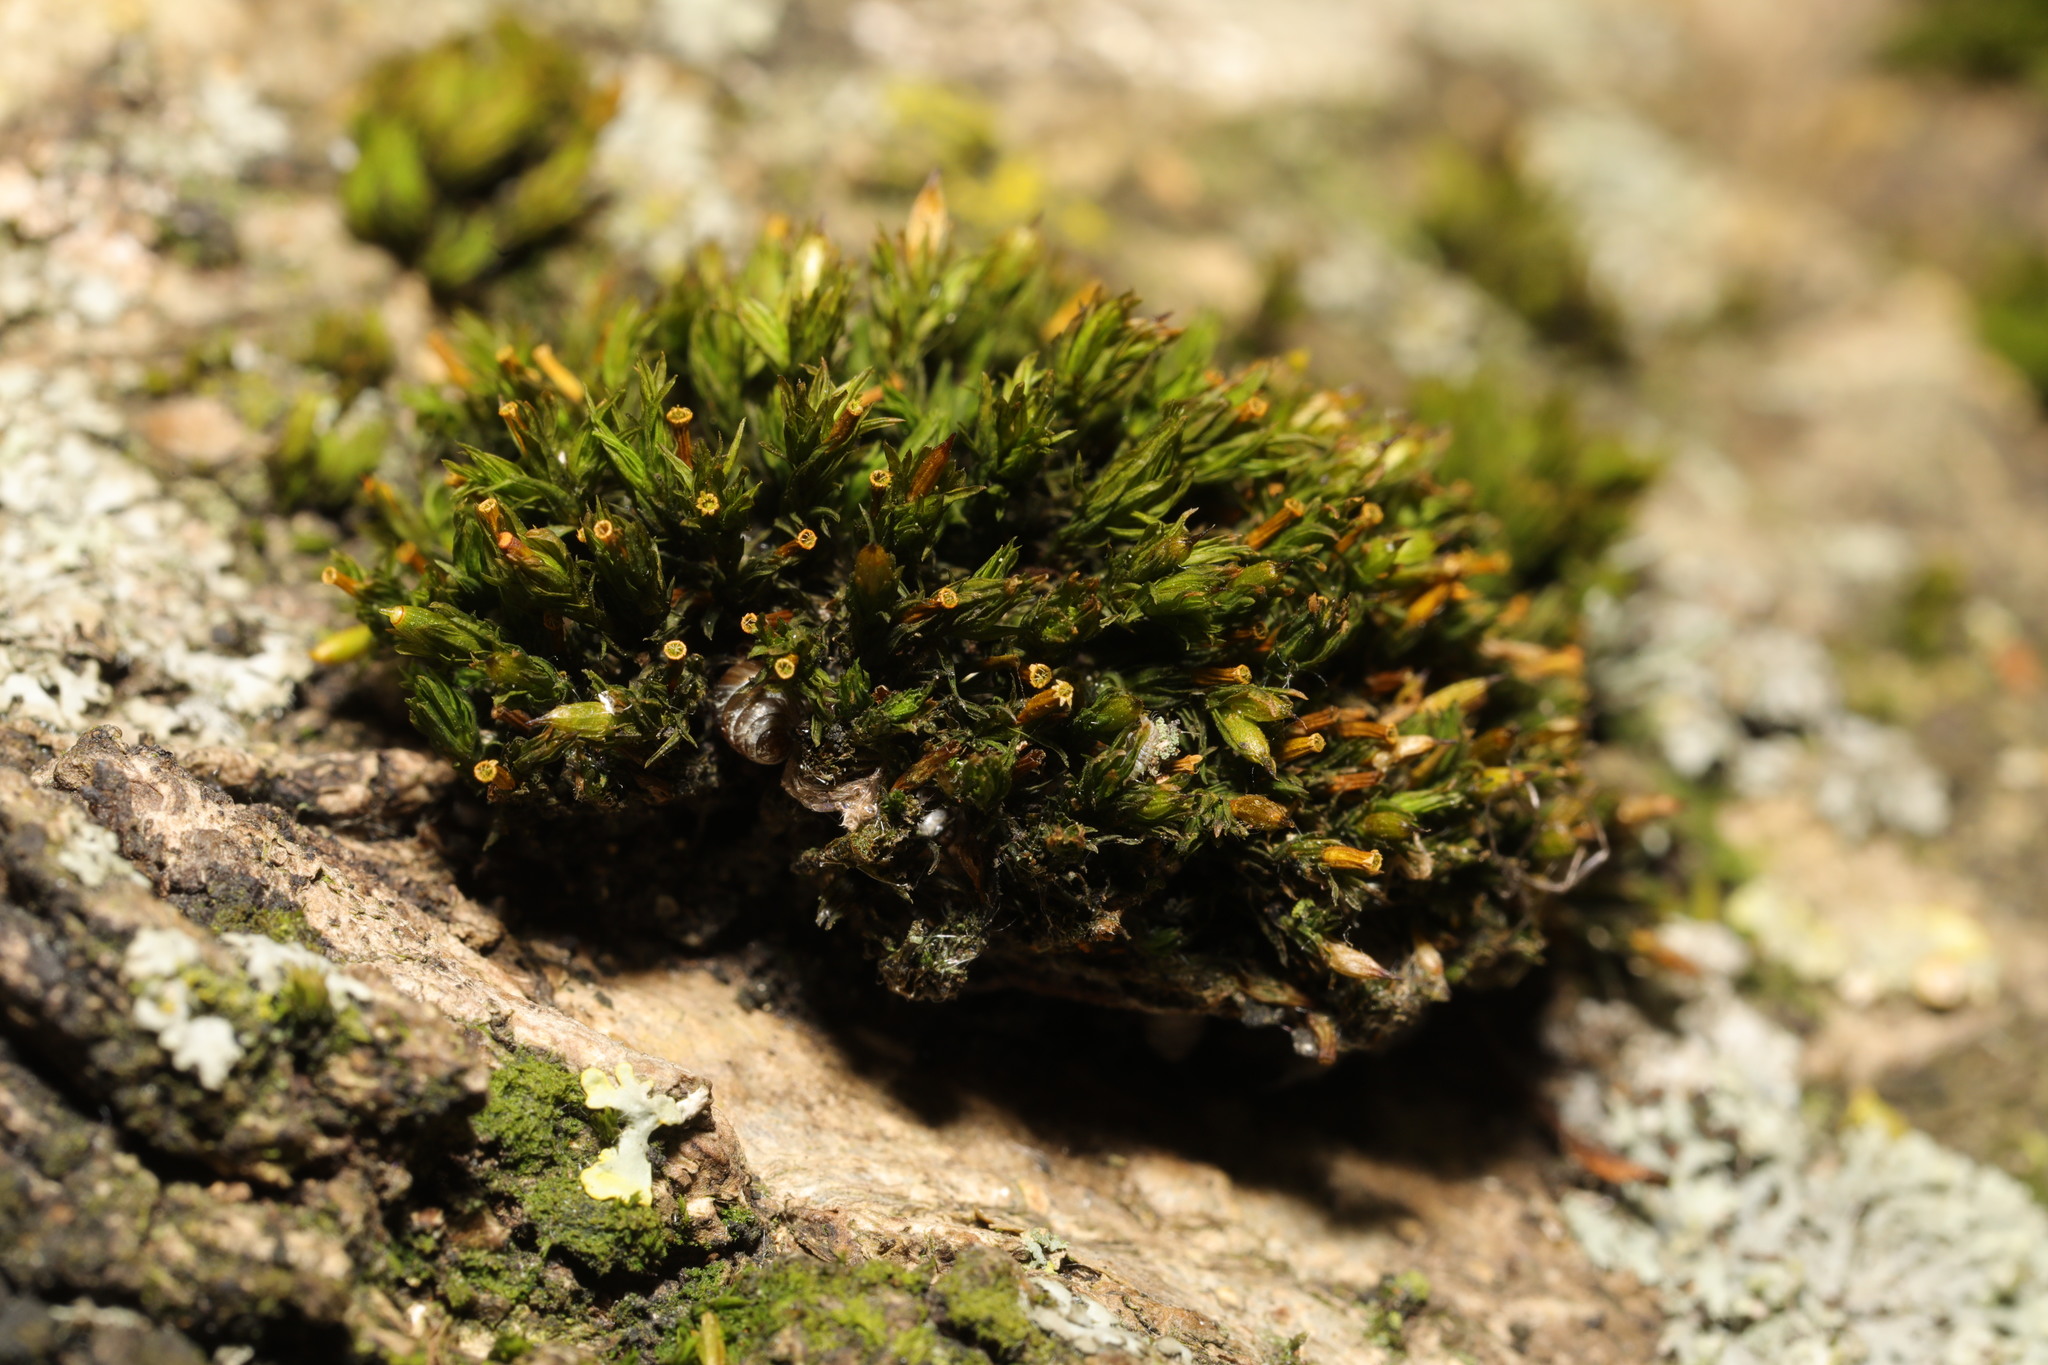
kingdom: Plantae
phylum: Bryophyta
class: Bryopsida
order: Orthotrichales
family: Orthotrichaceae
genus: Orthotrichum
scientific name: Orthotrichum stramineum
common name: Straw bristle-moss
